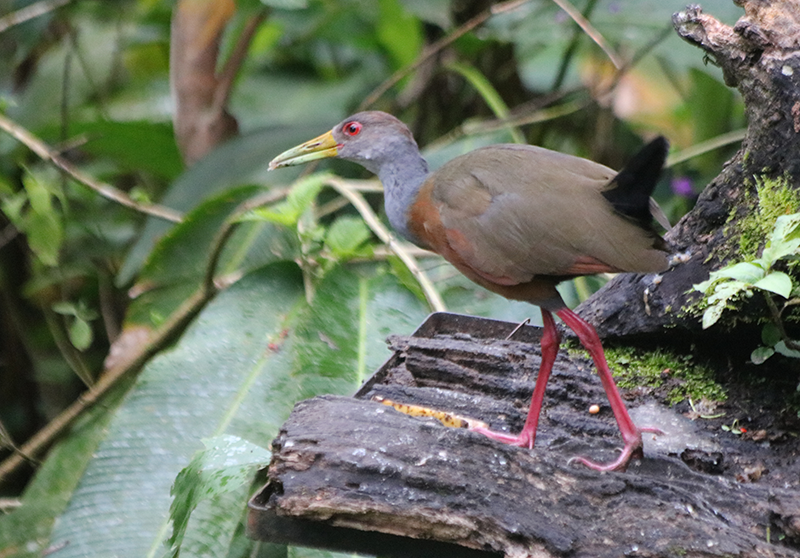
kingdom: Animalia
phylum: Chordata
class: Aves
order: Gruiformes
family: Rallidae
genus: Aramides
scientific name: Aramides cajanea
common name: Gray-necked wood-rail
